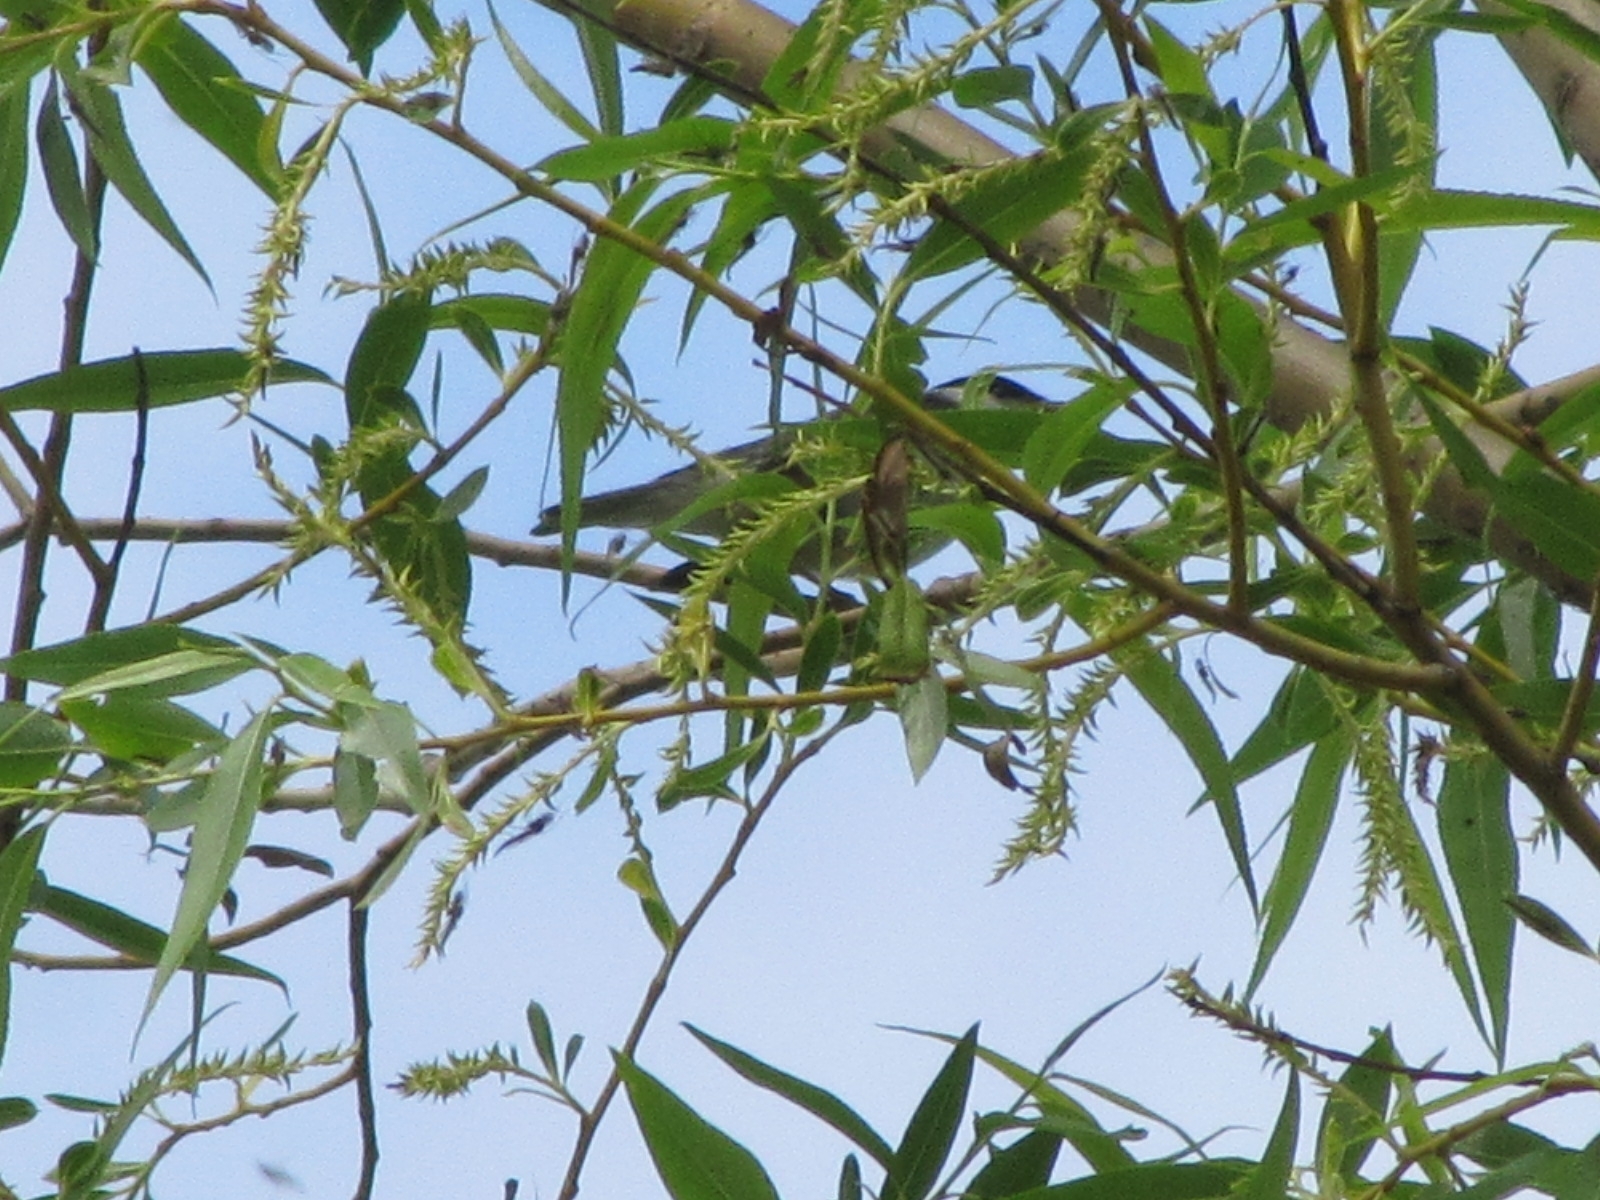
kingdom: Animalia
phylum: Chordata
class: Aves
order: Passeriformes
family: Parulidae
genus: Setophaga
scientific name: Setophaga striata
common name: Blackpoll warbler
